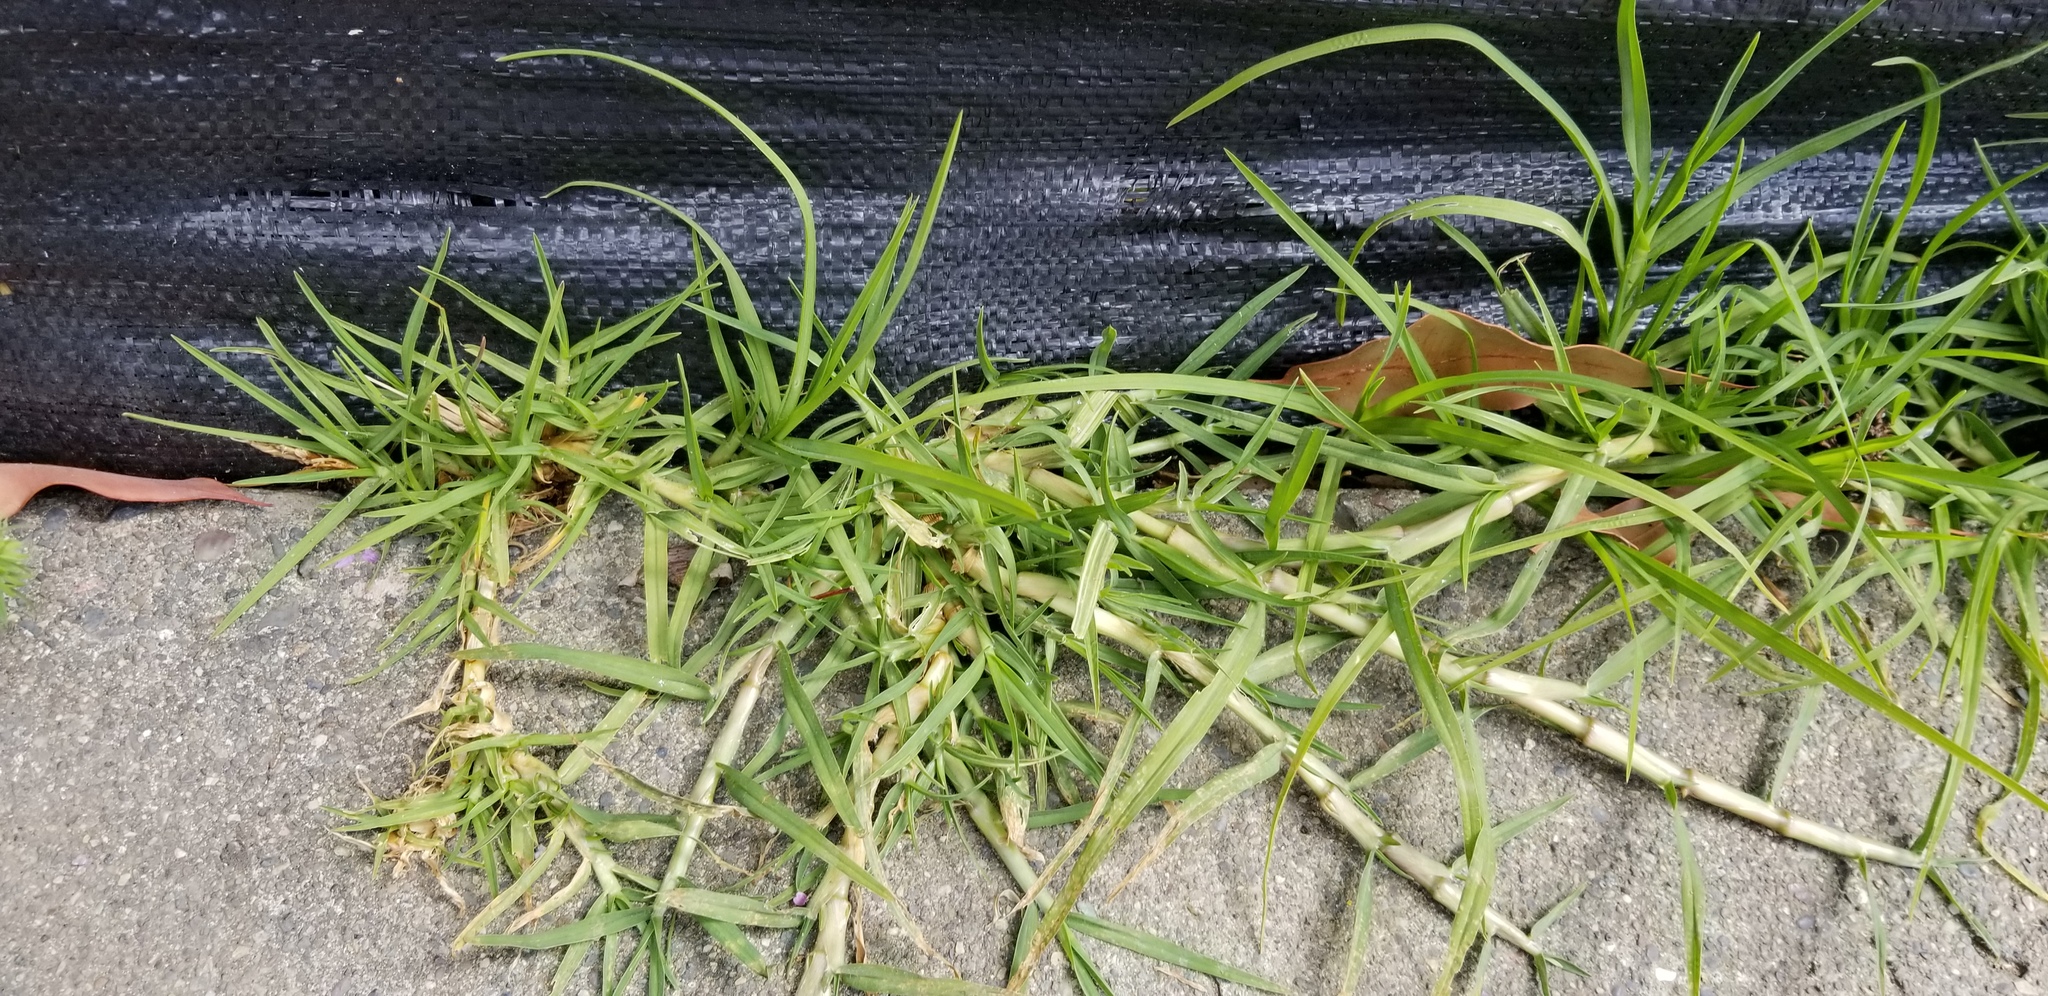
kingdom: Plantae
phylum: Tracheophyta
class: Liliopsida
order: Poales
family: Poaceae
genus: Cenchrus
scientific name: Cenchrus clandestinus
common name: Kikuyugrass
